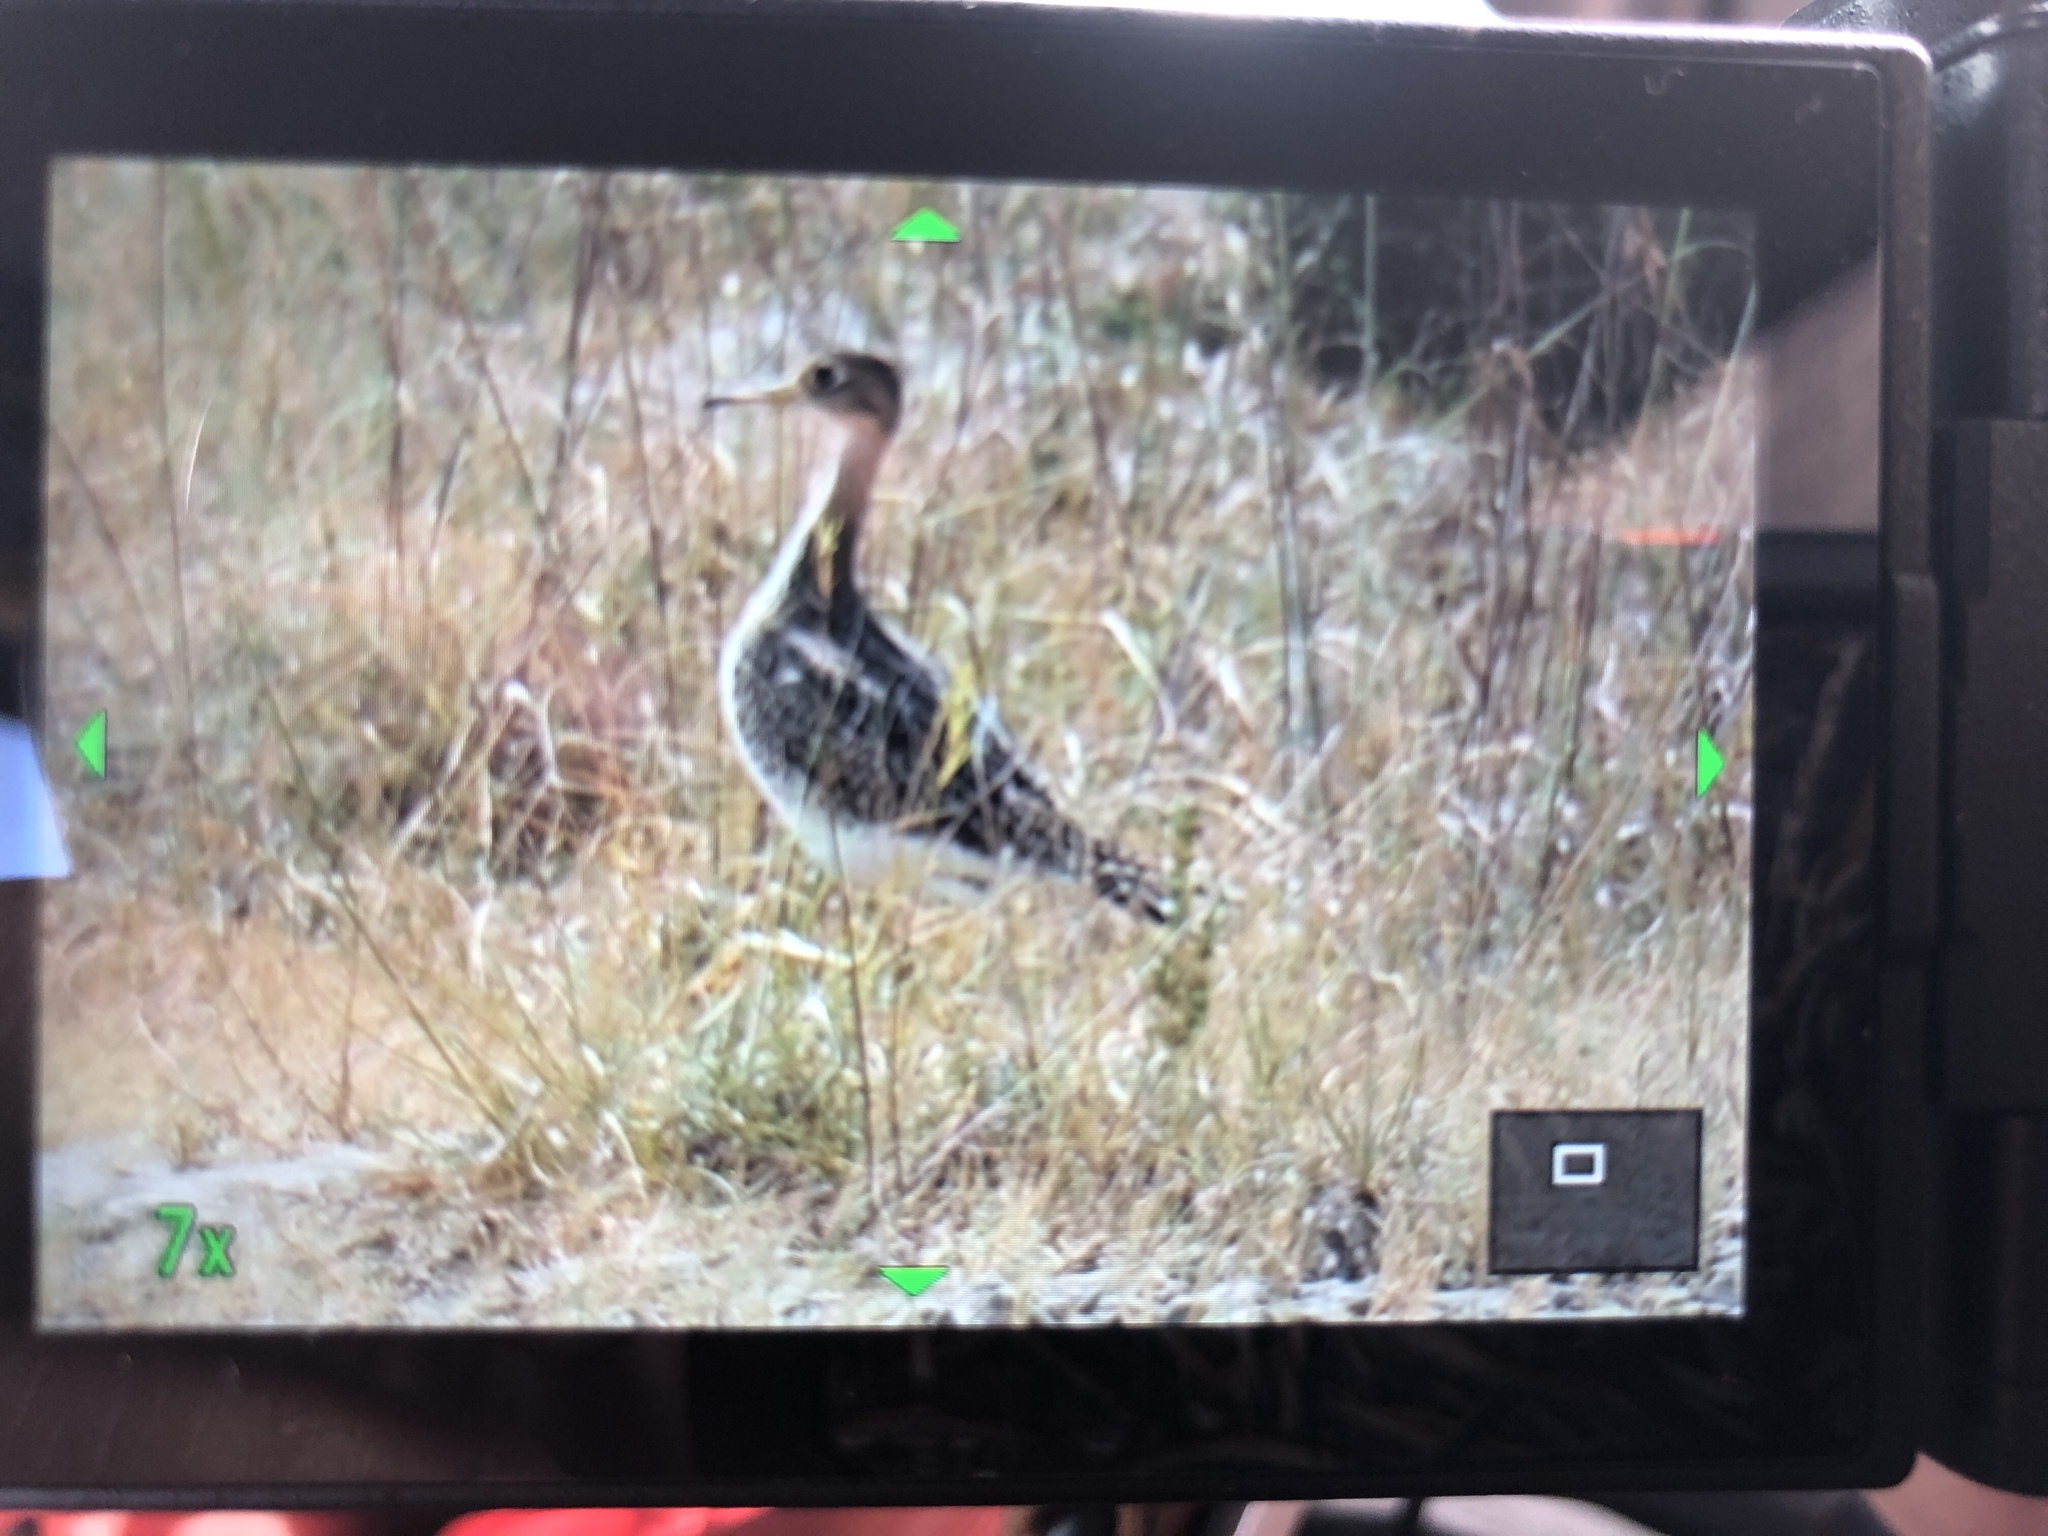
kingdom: Animalia
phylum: Chordata
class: Aves
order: Charadriiformes
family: Scolopacidae
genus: Bartramia
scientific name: Bartramia longicauda
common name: Upland sandpiper
